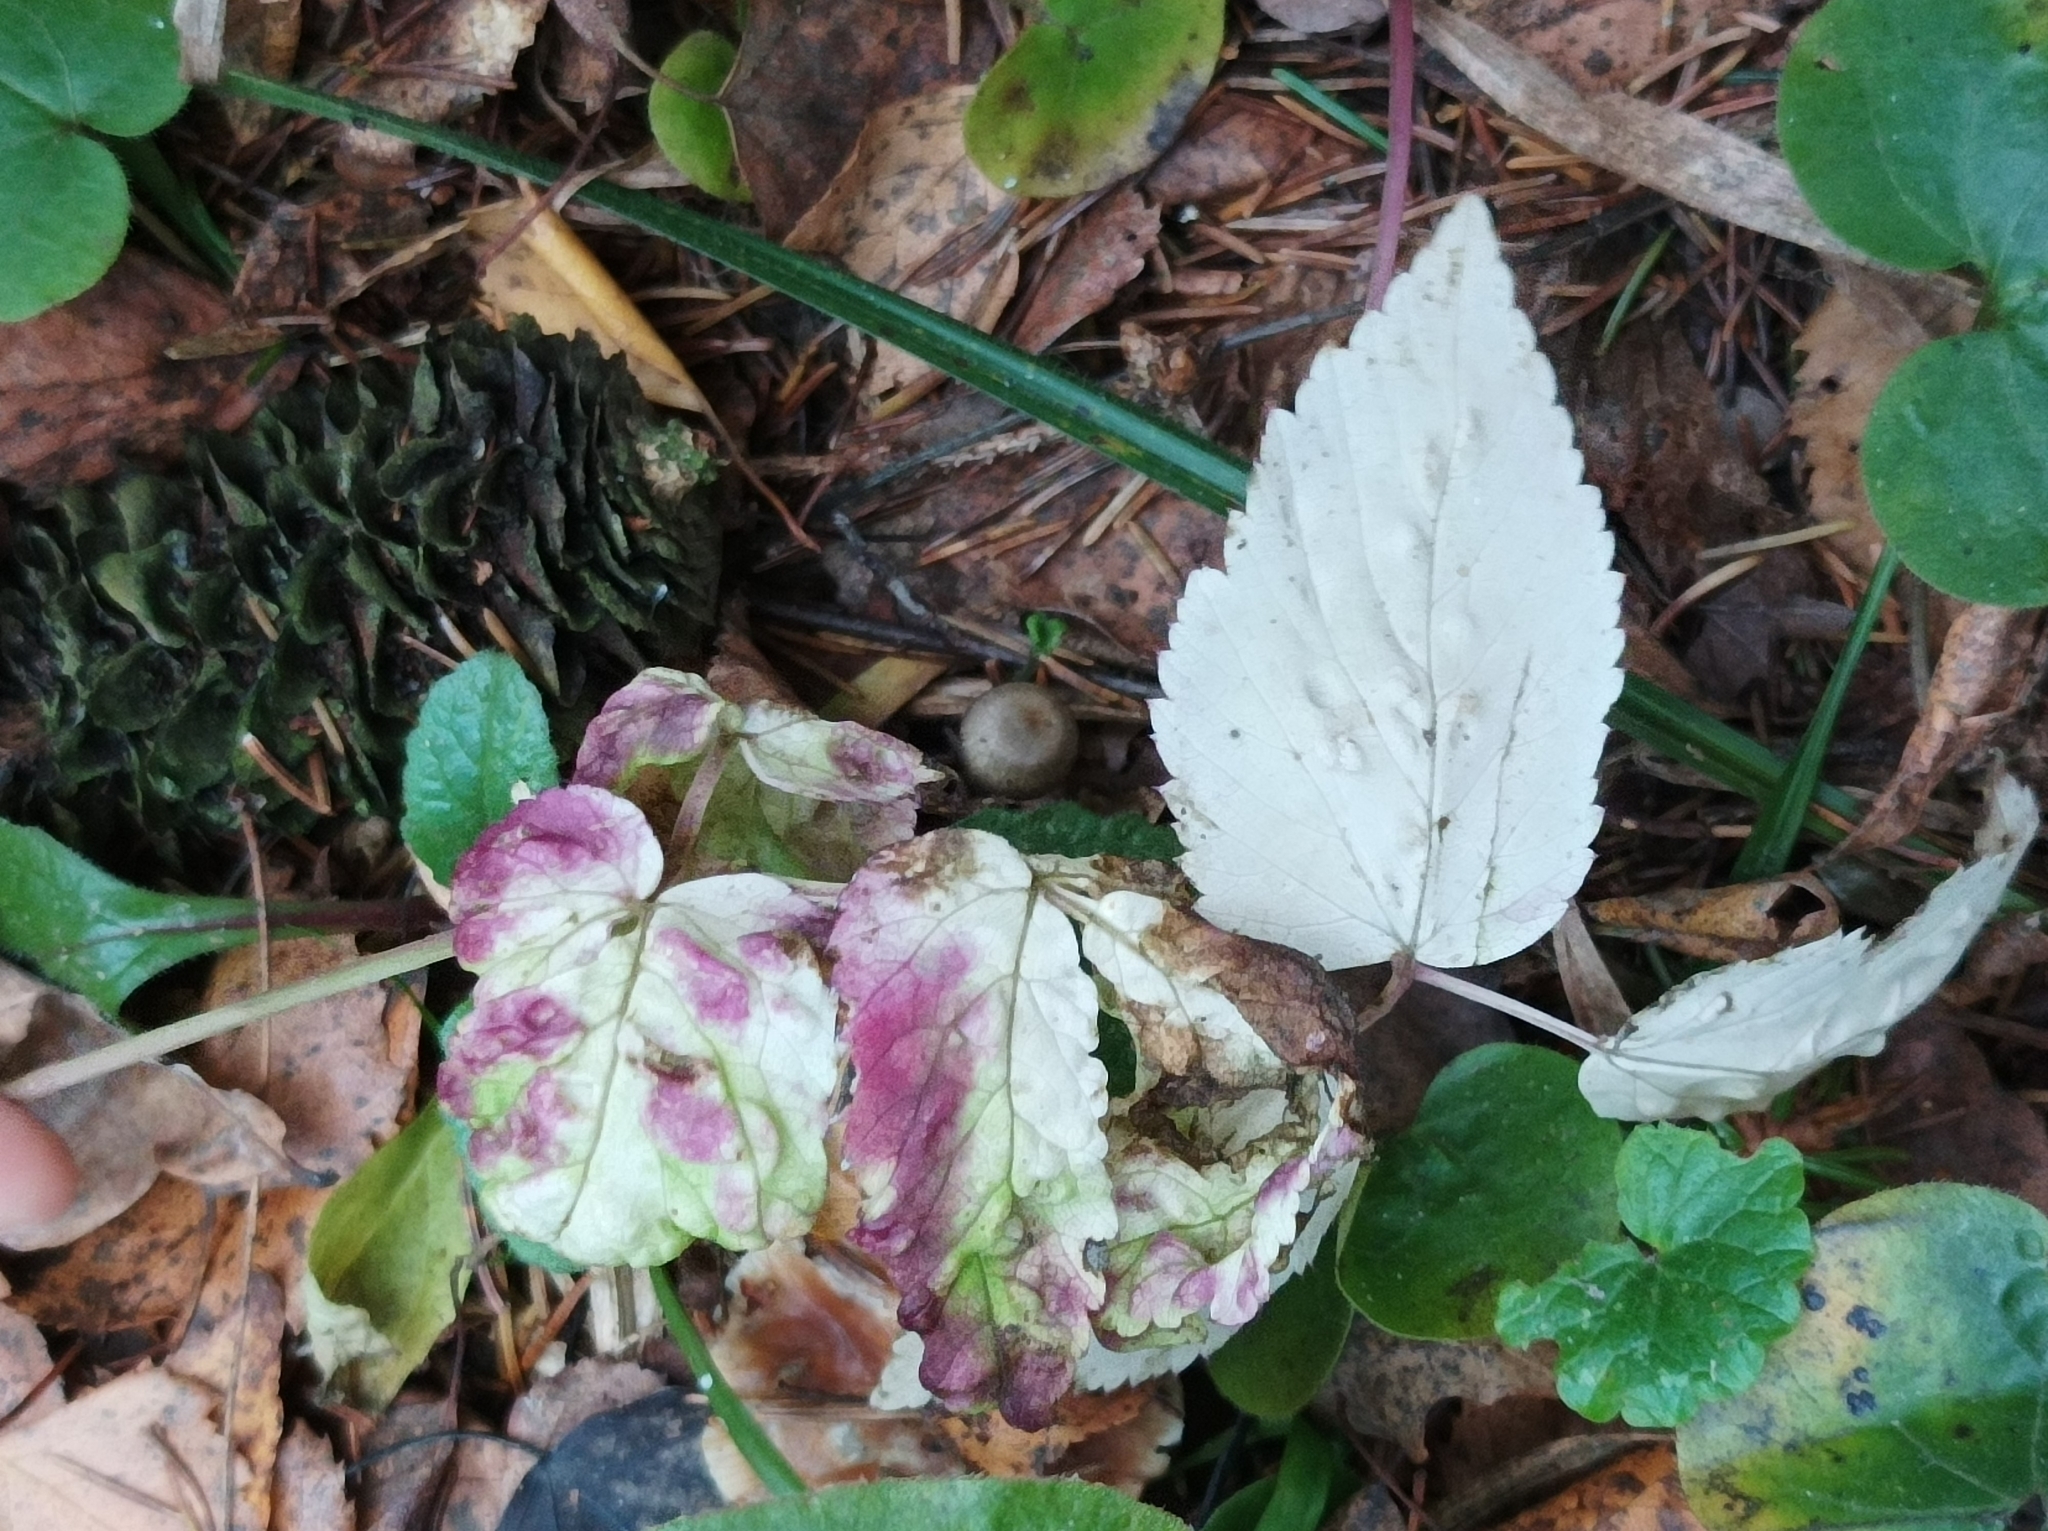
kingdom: Plantae
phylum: Tracheophyta
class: Magnoliopsida
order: Apiales
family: Apiaceae
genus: Aegopodium
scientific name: Aegopodium podagraria
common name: Ground-elder
